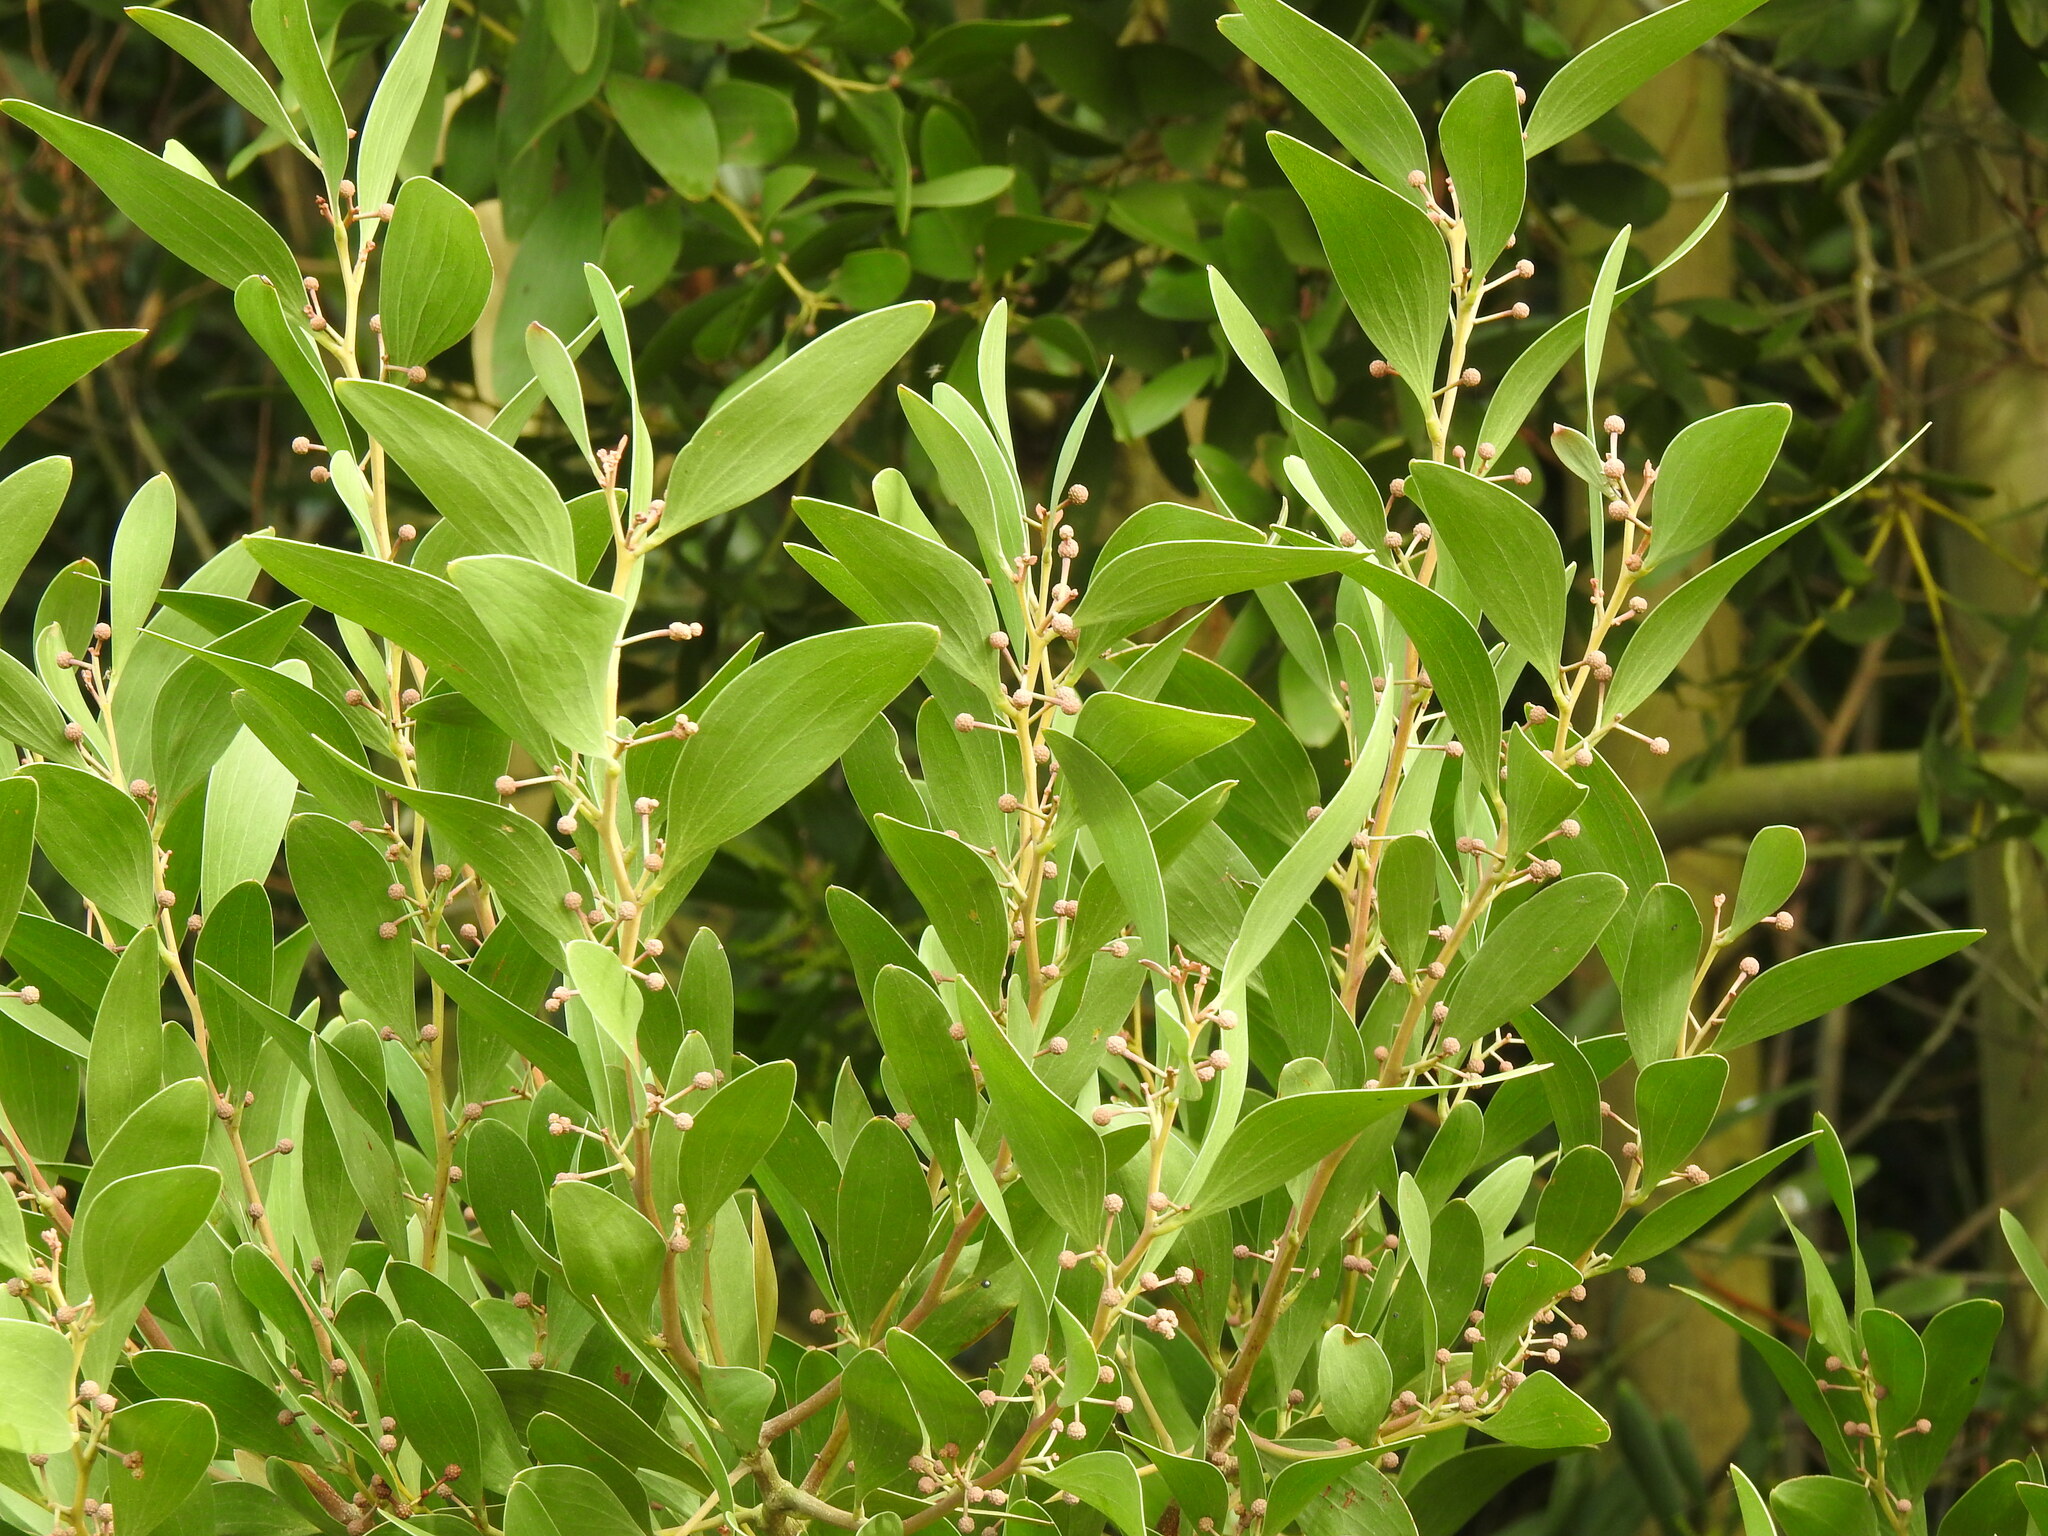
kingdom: Plantae
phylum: Tracheophyta
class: Magnoliopsida
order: Fabales
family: Fabaceae
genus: Acacia
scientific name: Acacia melanoxylon
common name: Blackwood
